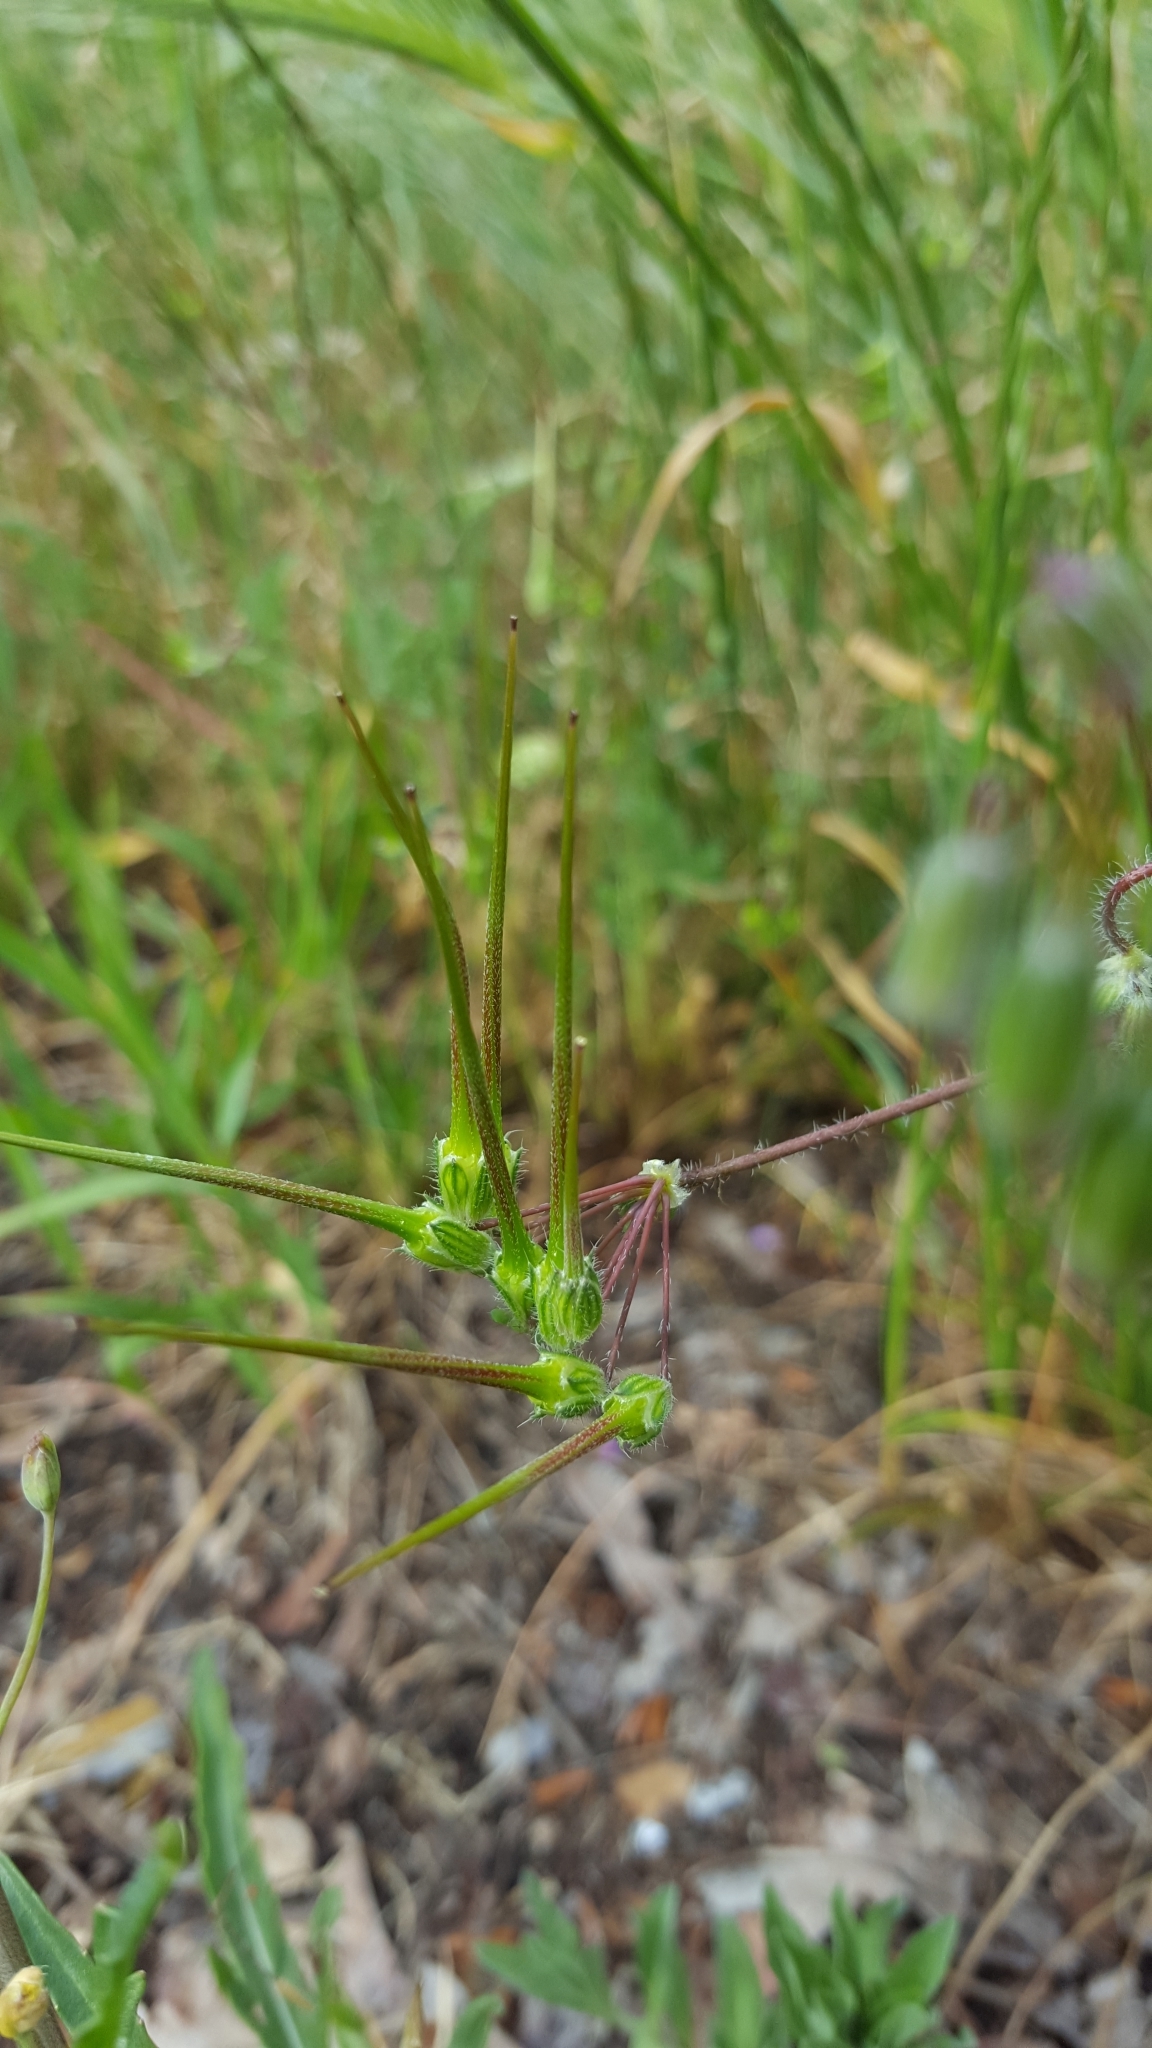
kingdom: Plantae
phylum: Tracheophyta
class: Magnoliopsida
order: Geraniales
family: Geraniaceae
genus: Erodium
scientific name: Erodium cicutarium
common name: Common stork's-bill
